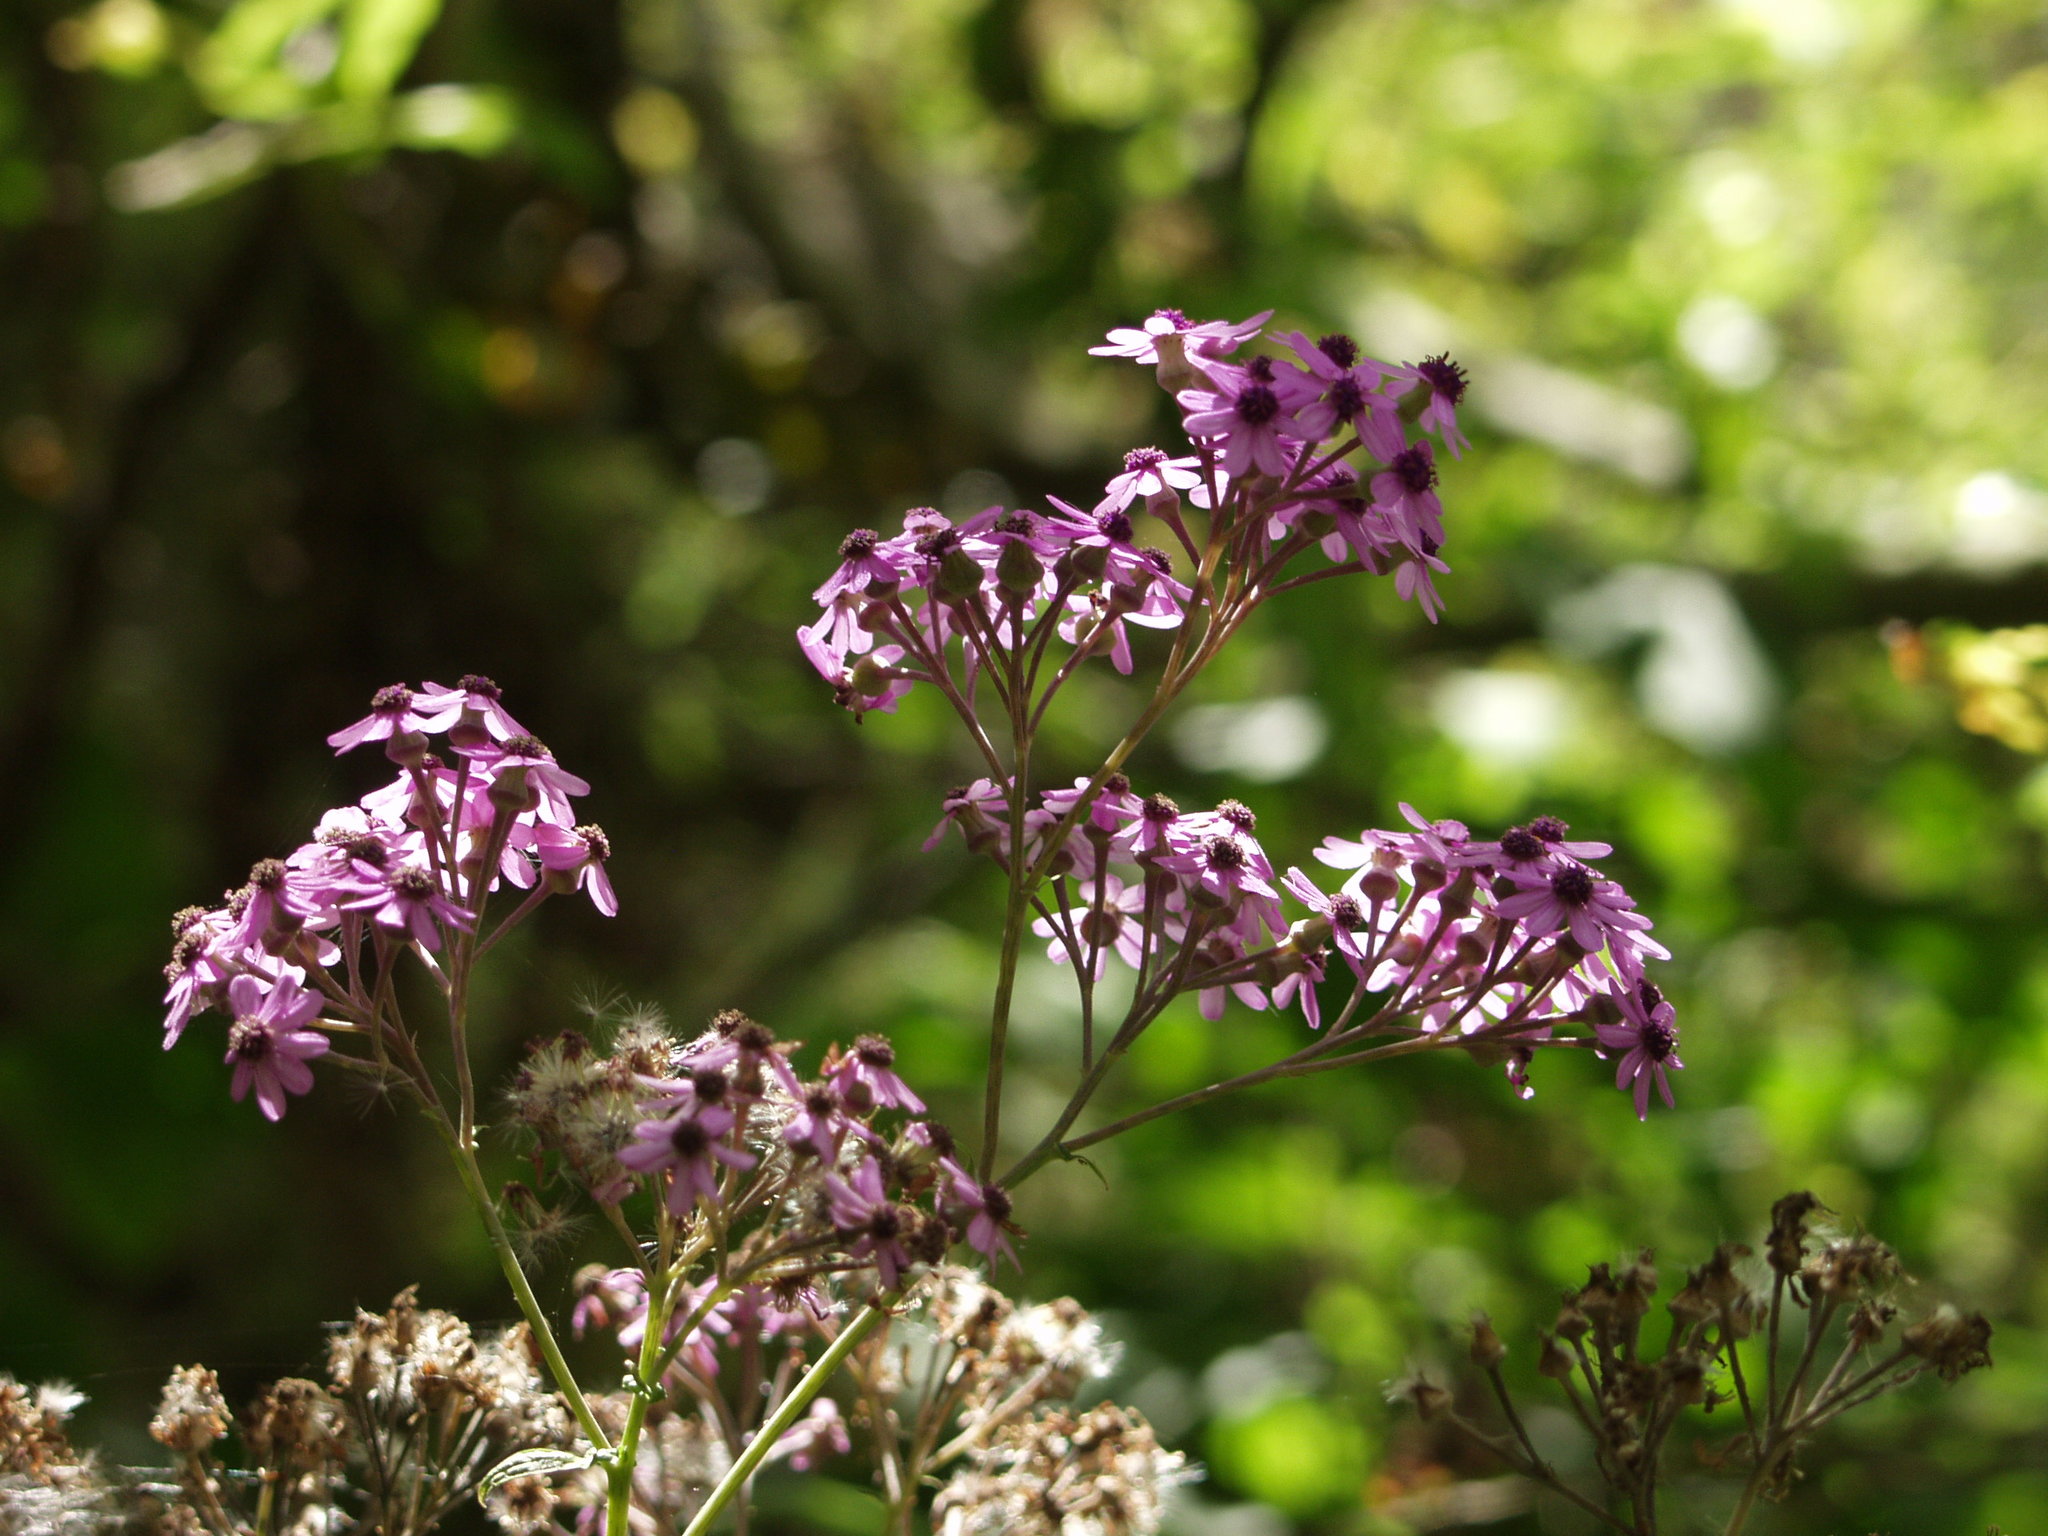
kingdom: Plantae
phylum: Tracheophyta
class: Magnoliopsida
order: Asterales
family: Asteraceae
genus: Pericallis
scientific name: Pericallis papyracea
